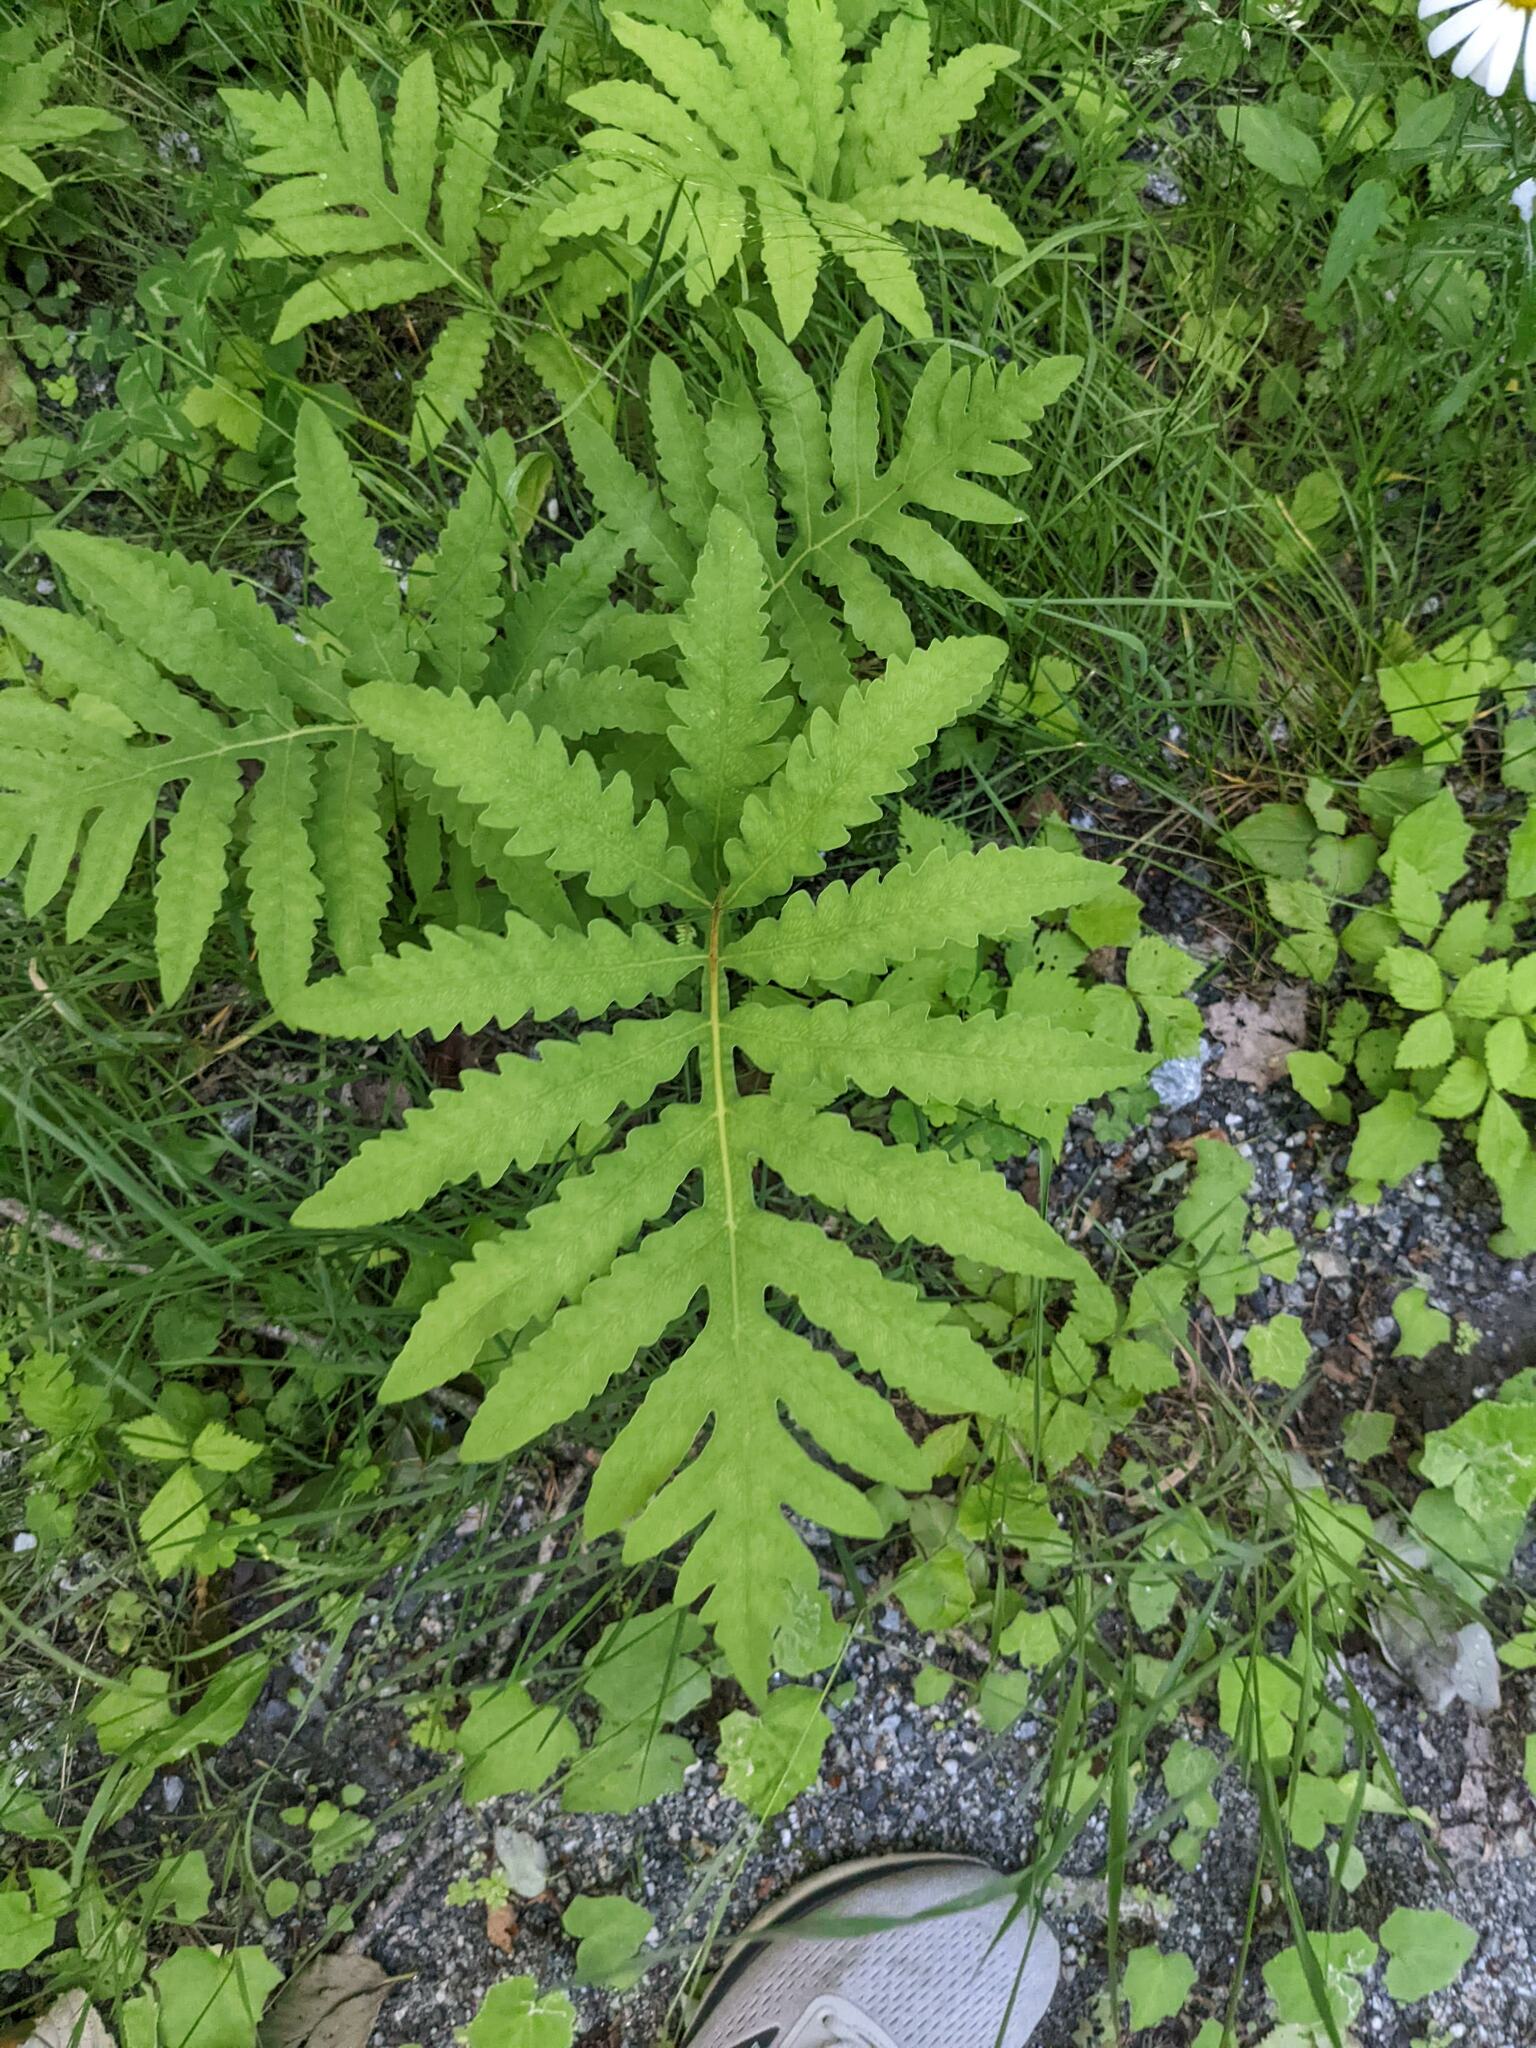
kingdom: Plantae
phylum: Tracheophyta
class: Polypodiopsida
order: Polypodiales
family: Onocleaceae
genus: Onoclea
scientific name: Onoclea sensibilis
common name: Sensitive fern
